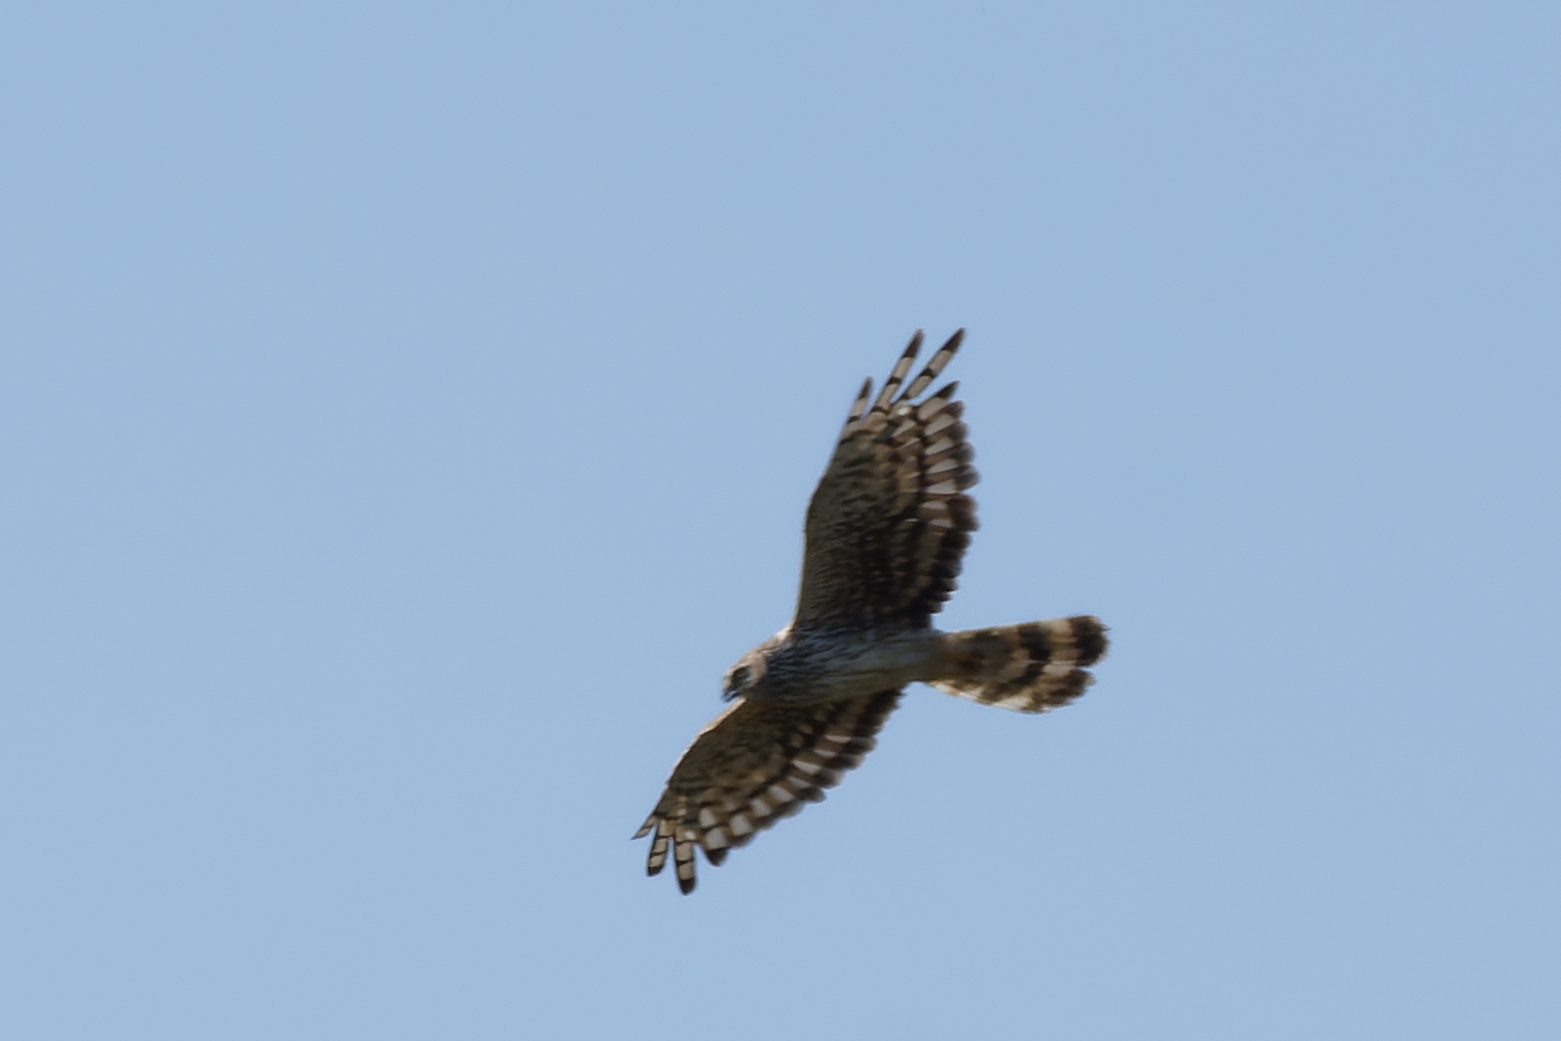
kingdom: Animalia
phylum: Chordata
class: Aves
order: Accipitriformes
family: Accipitridae
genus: Circus
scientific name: Circus cyaneus
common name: Hen harrier
